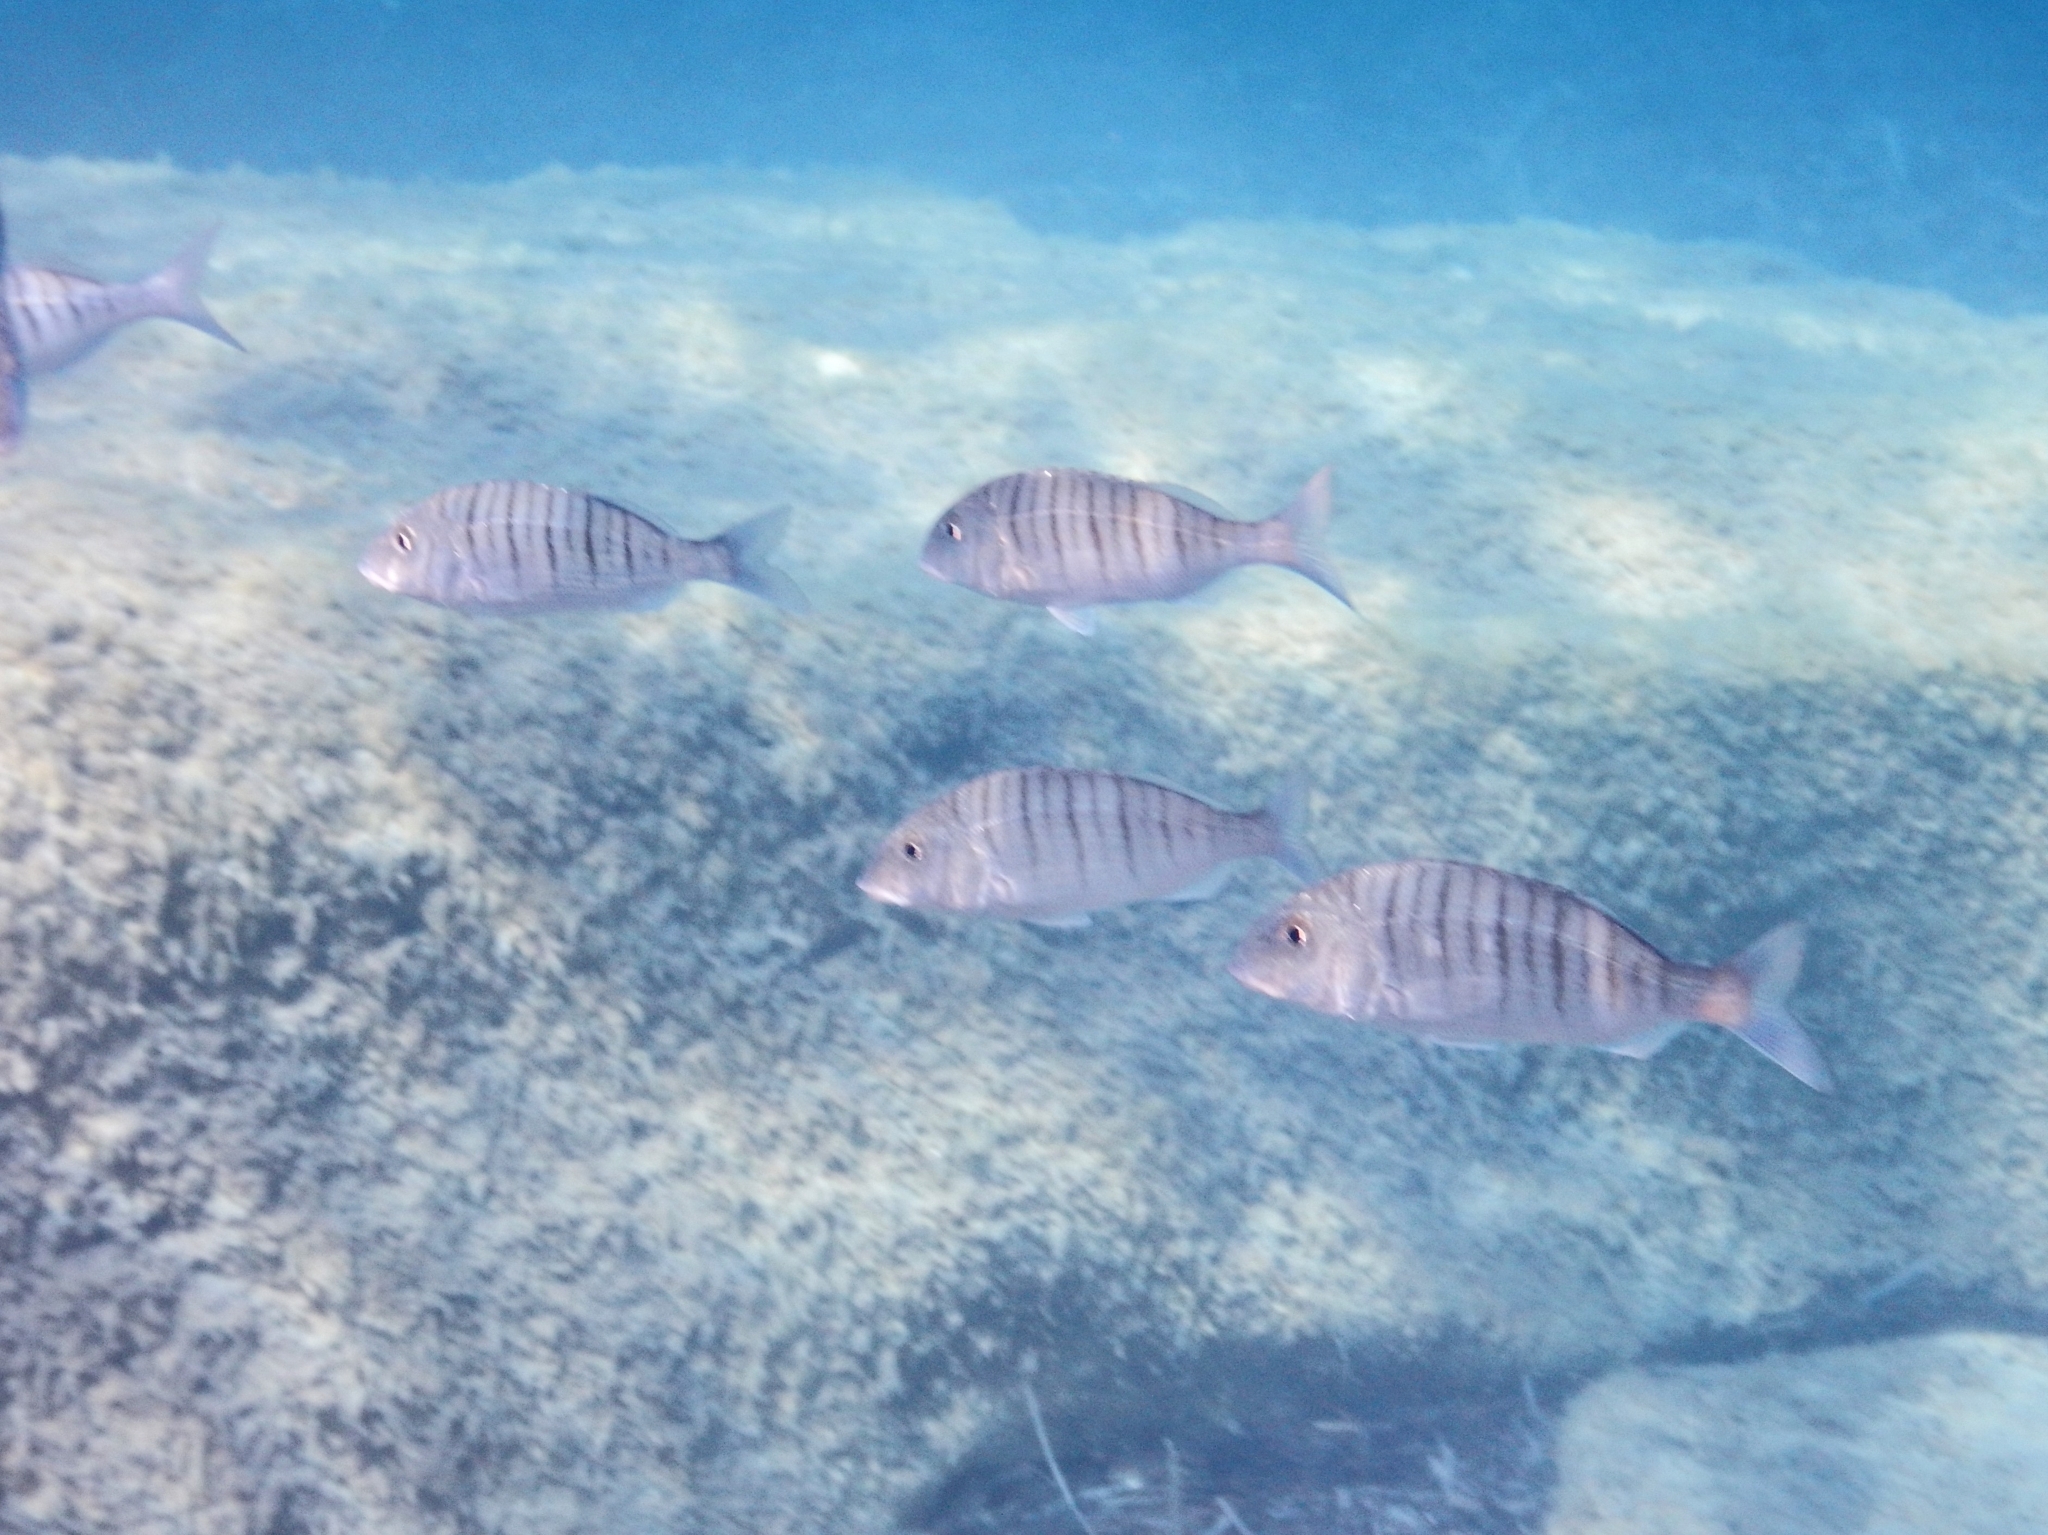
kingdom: Animalia
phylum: Chordata
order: Perciformes
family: Sparidae
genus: Lithognathus
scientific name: Lithognathus mormyrus
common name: Sand steenbras
